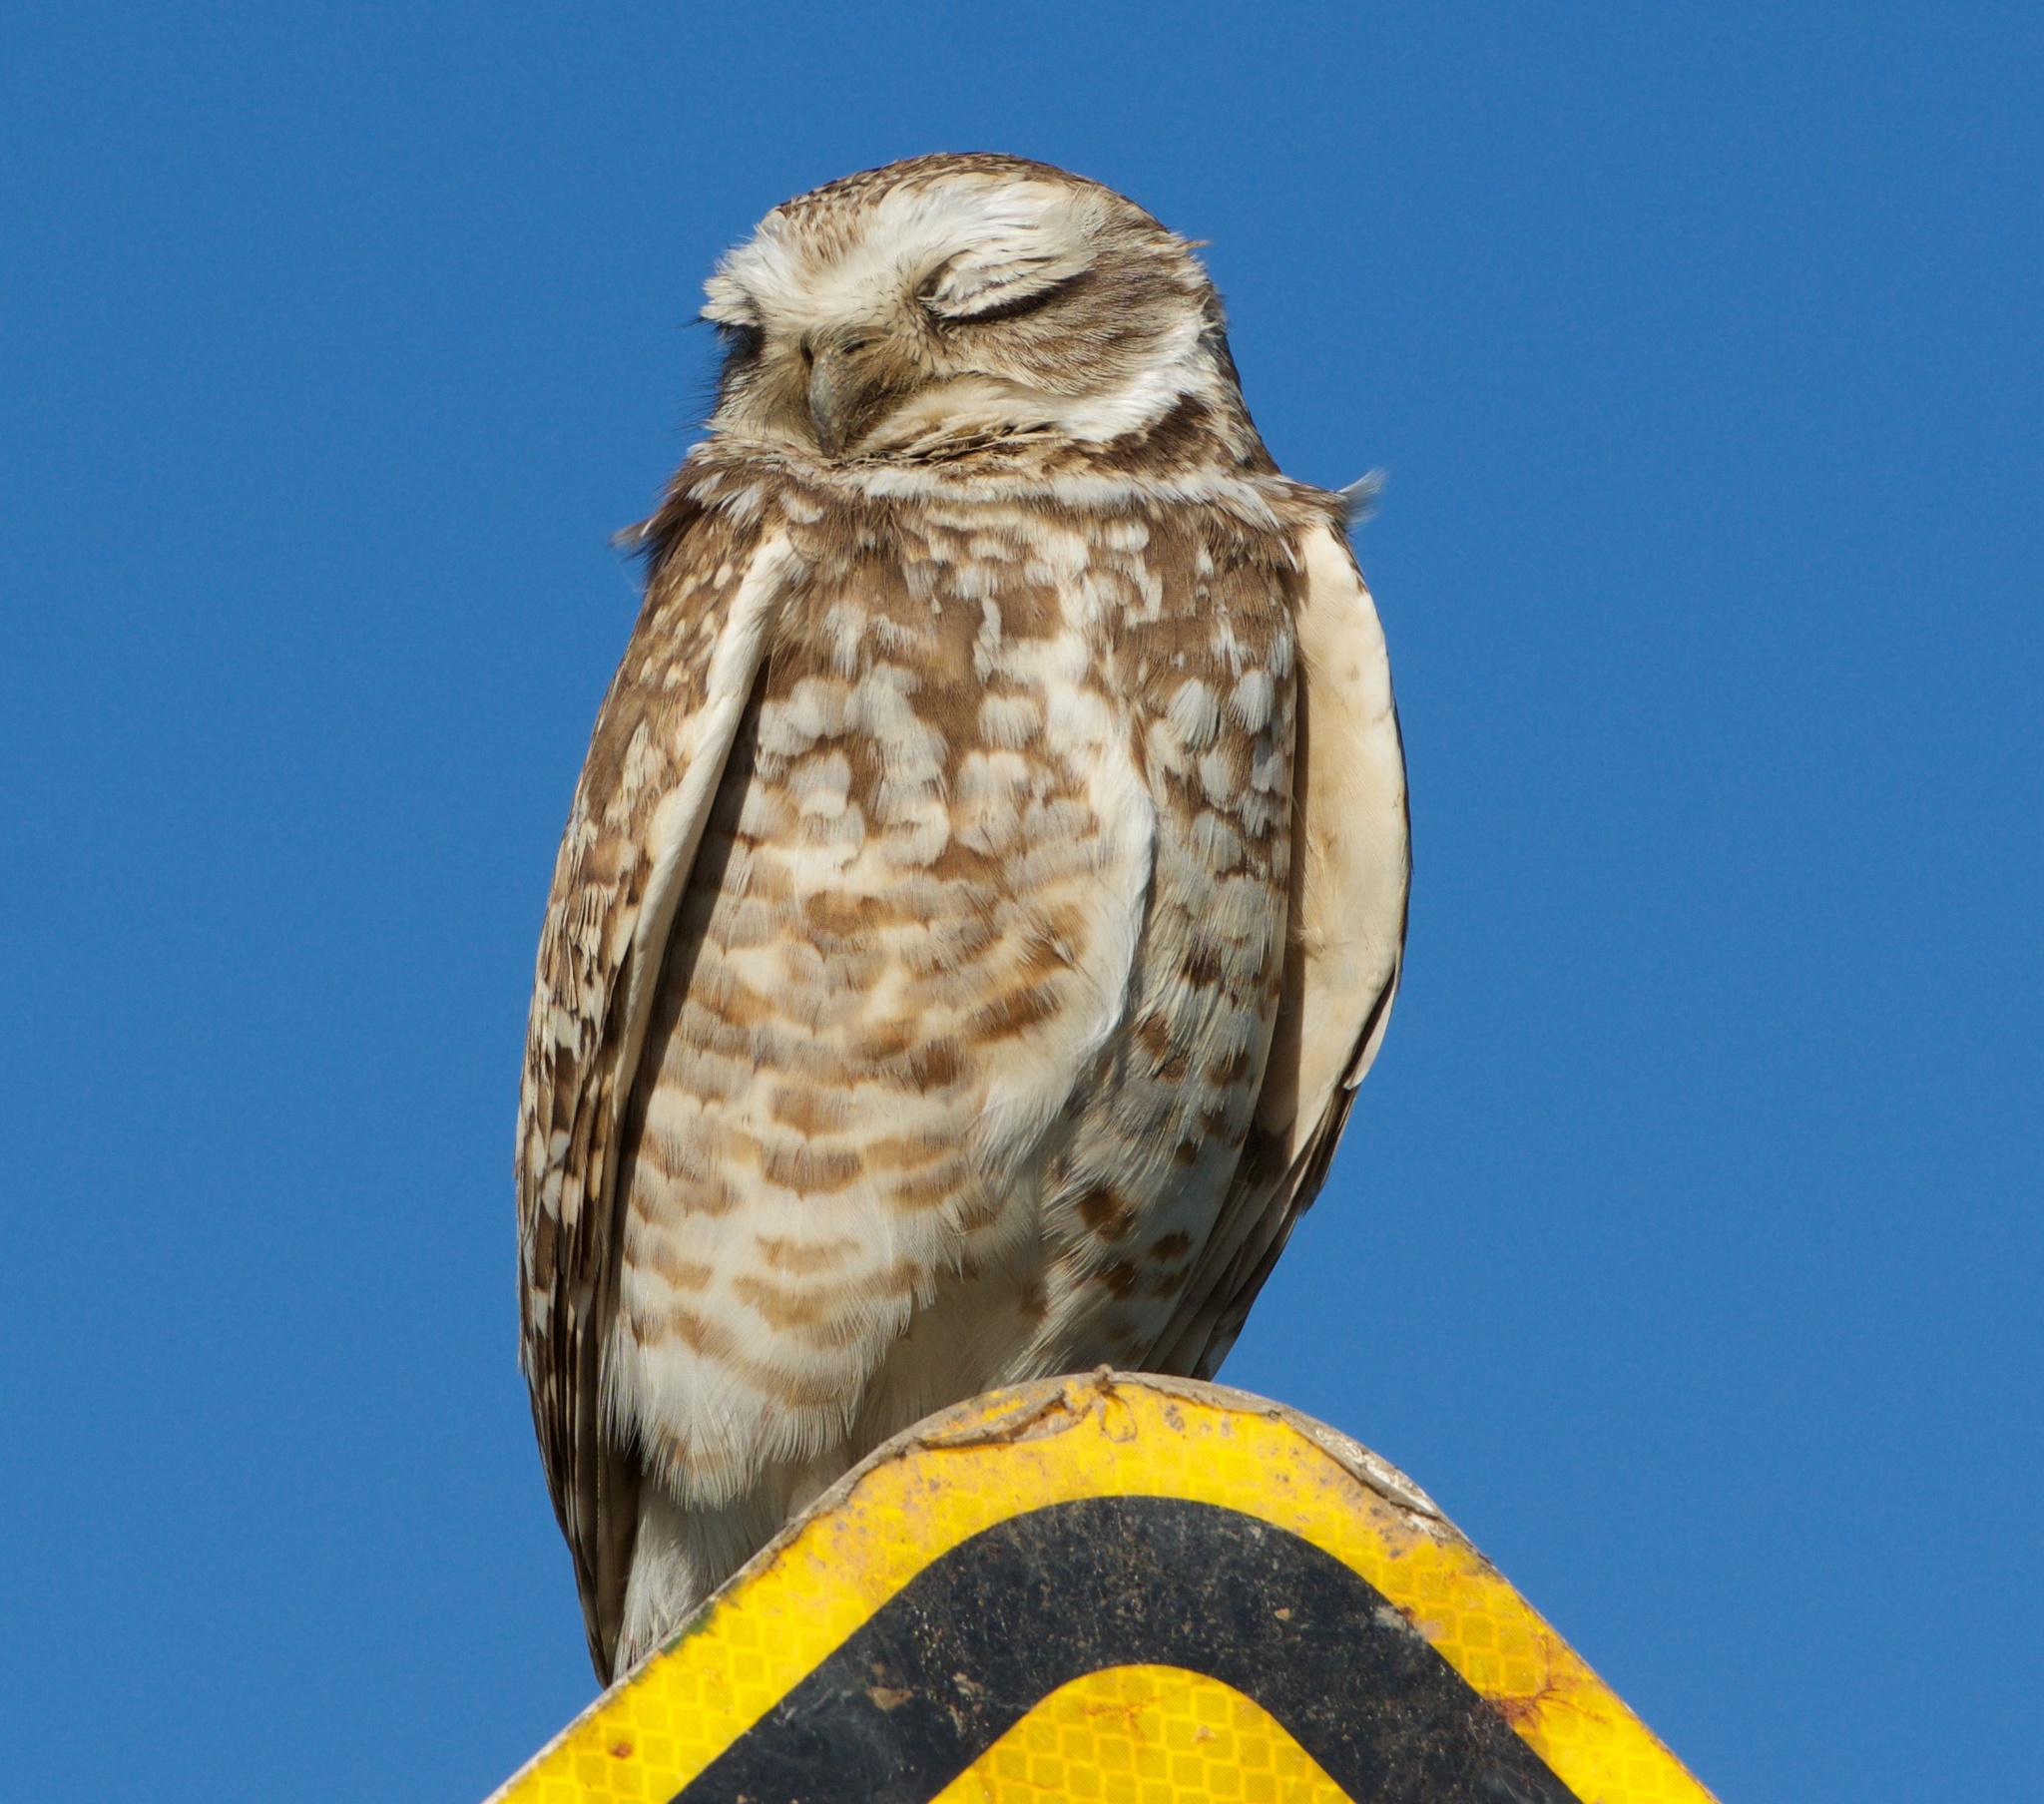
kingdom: Animalia
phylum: Chordata
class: Aves
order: Strigiformes
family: Strigidae
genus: Athene
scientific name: Athene cunicularia
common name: Burrowing owl
